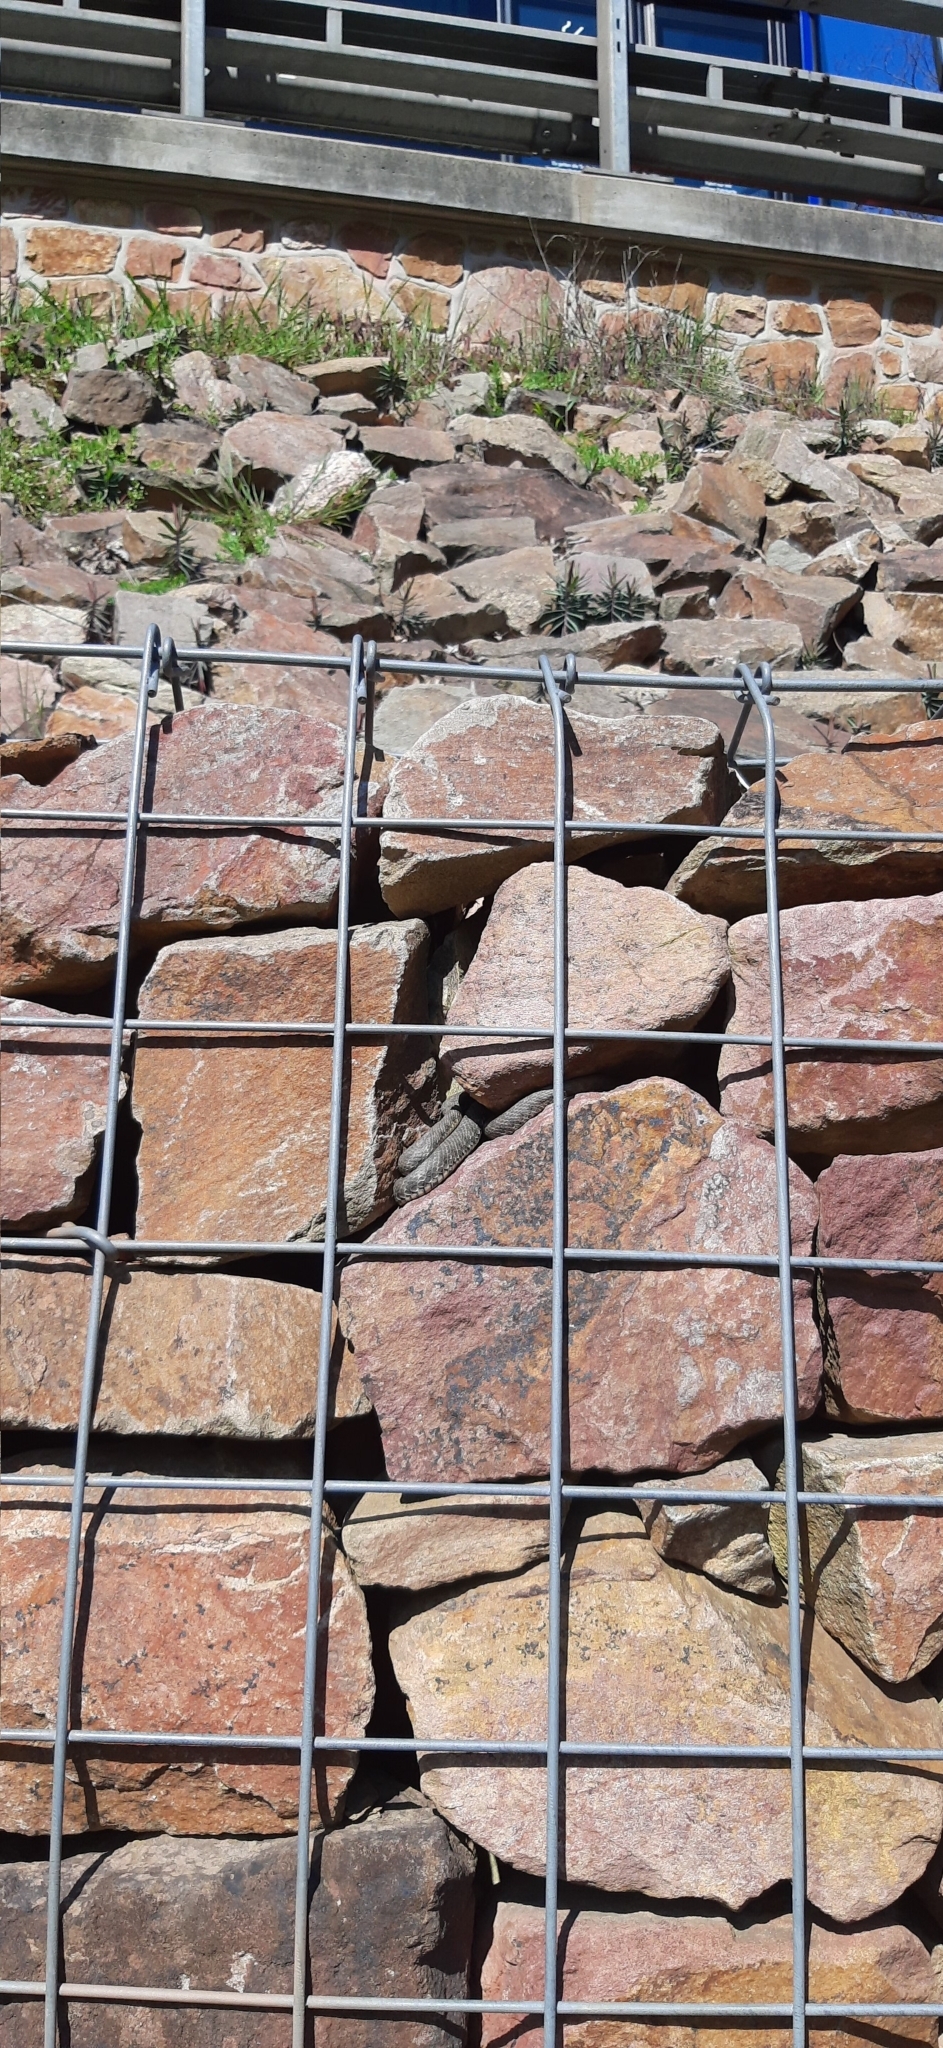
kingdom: Animalia
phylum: Chordata
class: Squamata
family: Colubridae
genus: Natrix
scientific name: Natrix tessellata
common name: Dice snake
